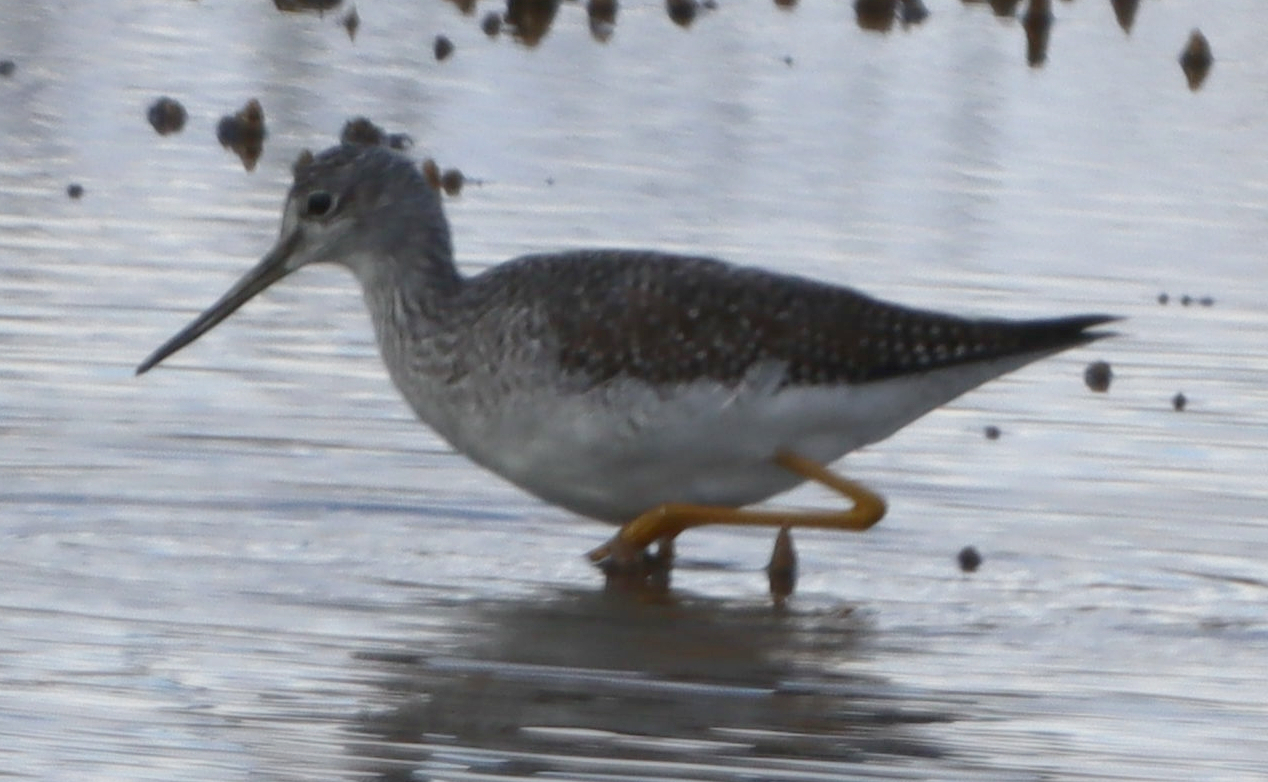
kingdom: Animalia
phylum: Chordata
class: Aves
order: Charadriiformes
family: Scolopacidae
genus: Tringa
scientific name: Tringa melanoleuca
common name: Greater yellowlegs
